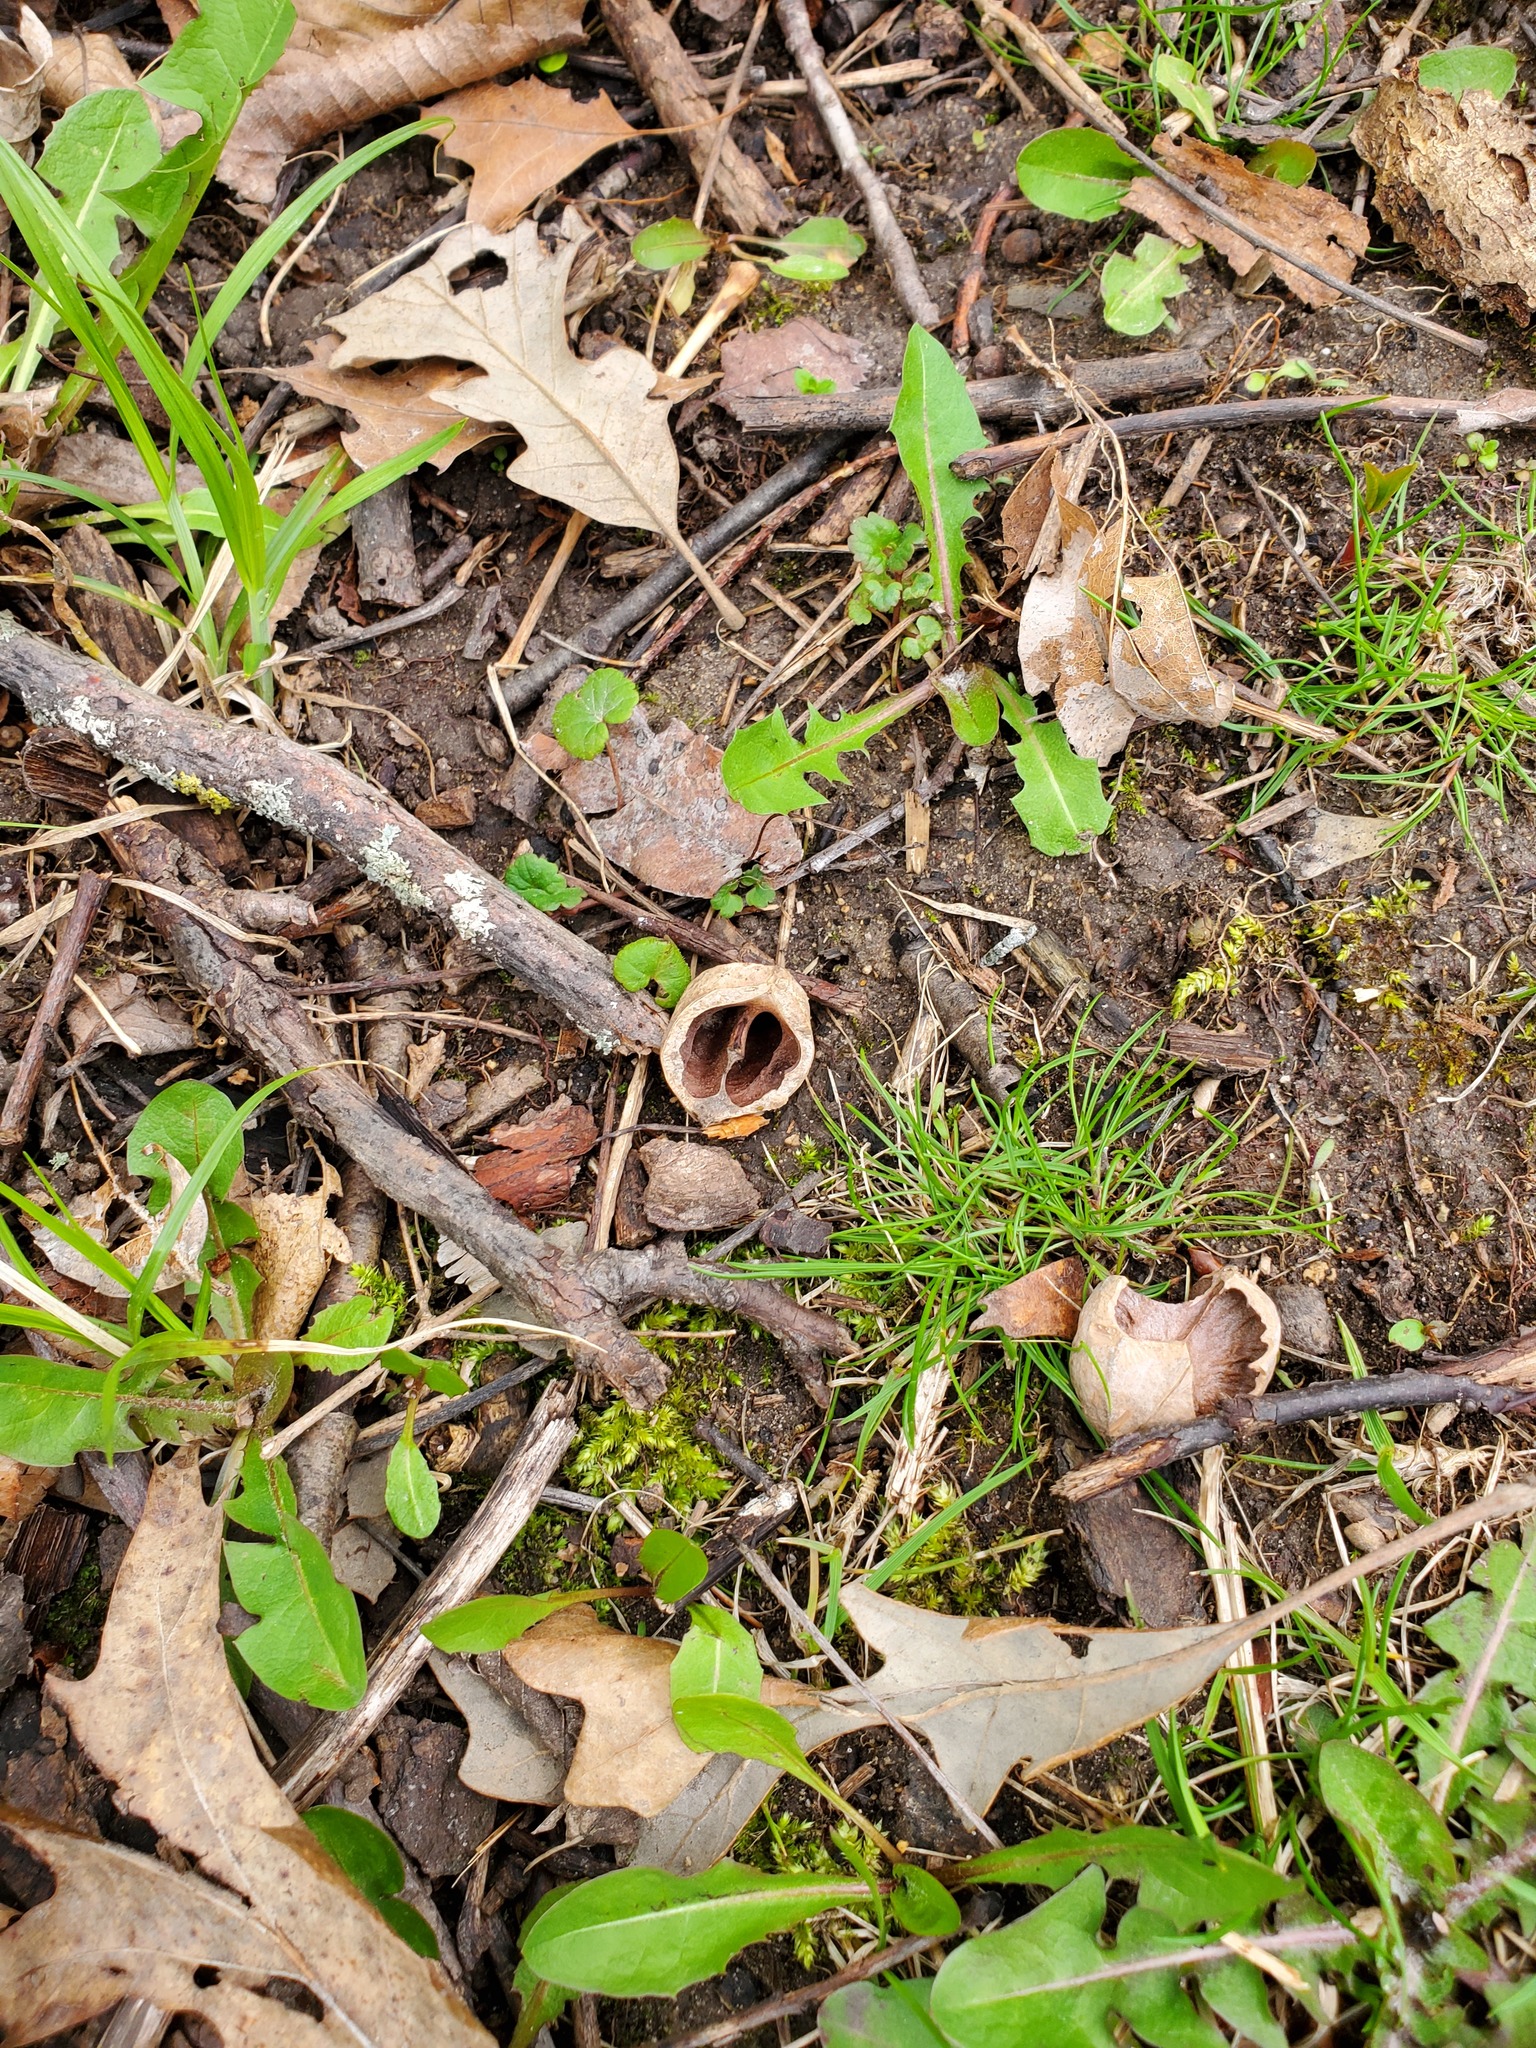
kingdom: Plantae
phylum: Tracheophyta
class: Magnoliopsida
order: Fagales
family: Juglandaceae
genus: Carya
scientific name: Carya ovata
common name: Shagbark hickory
